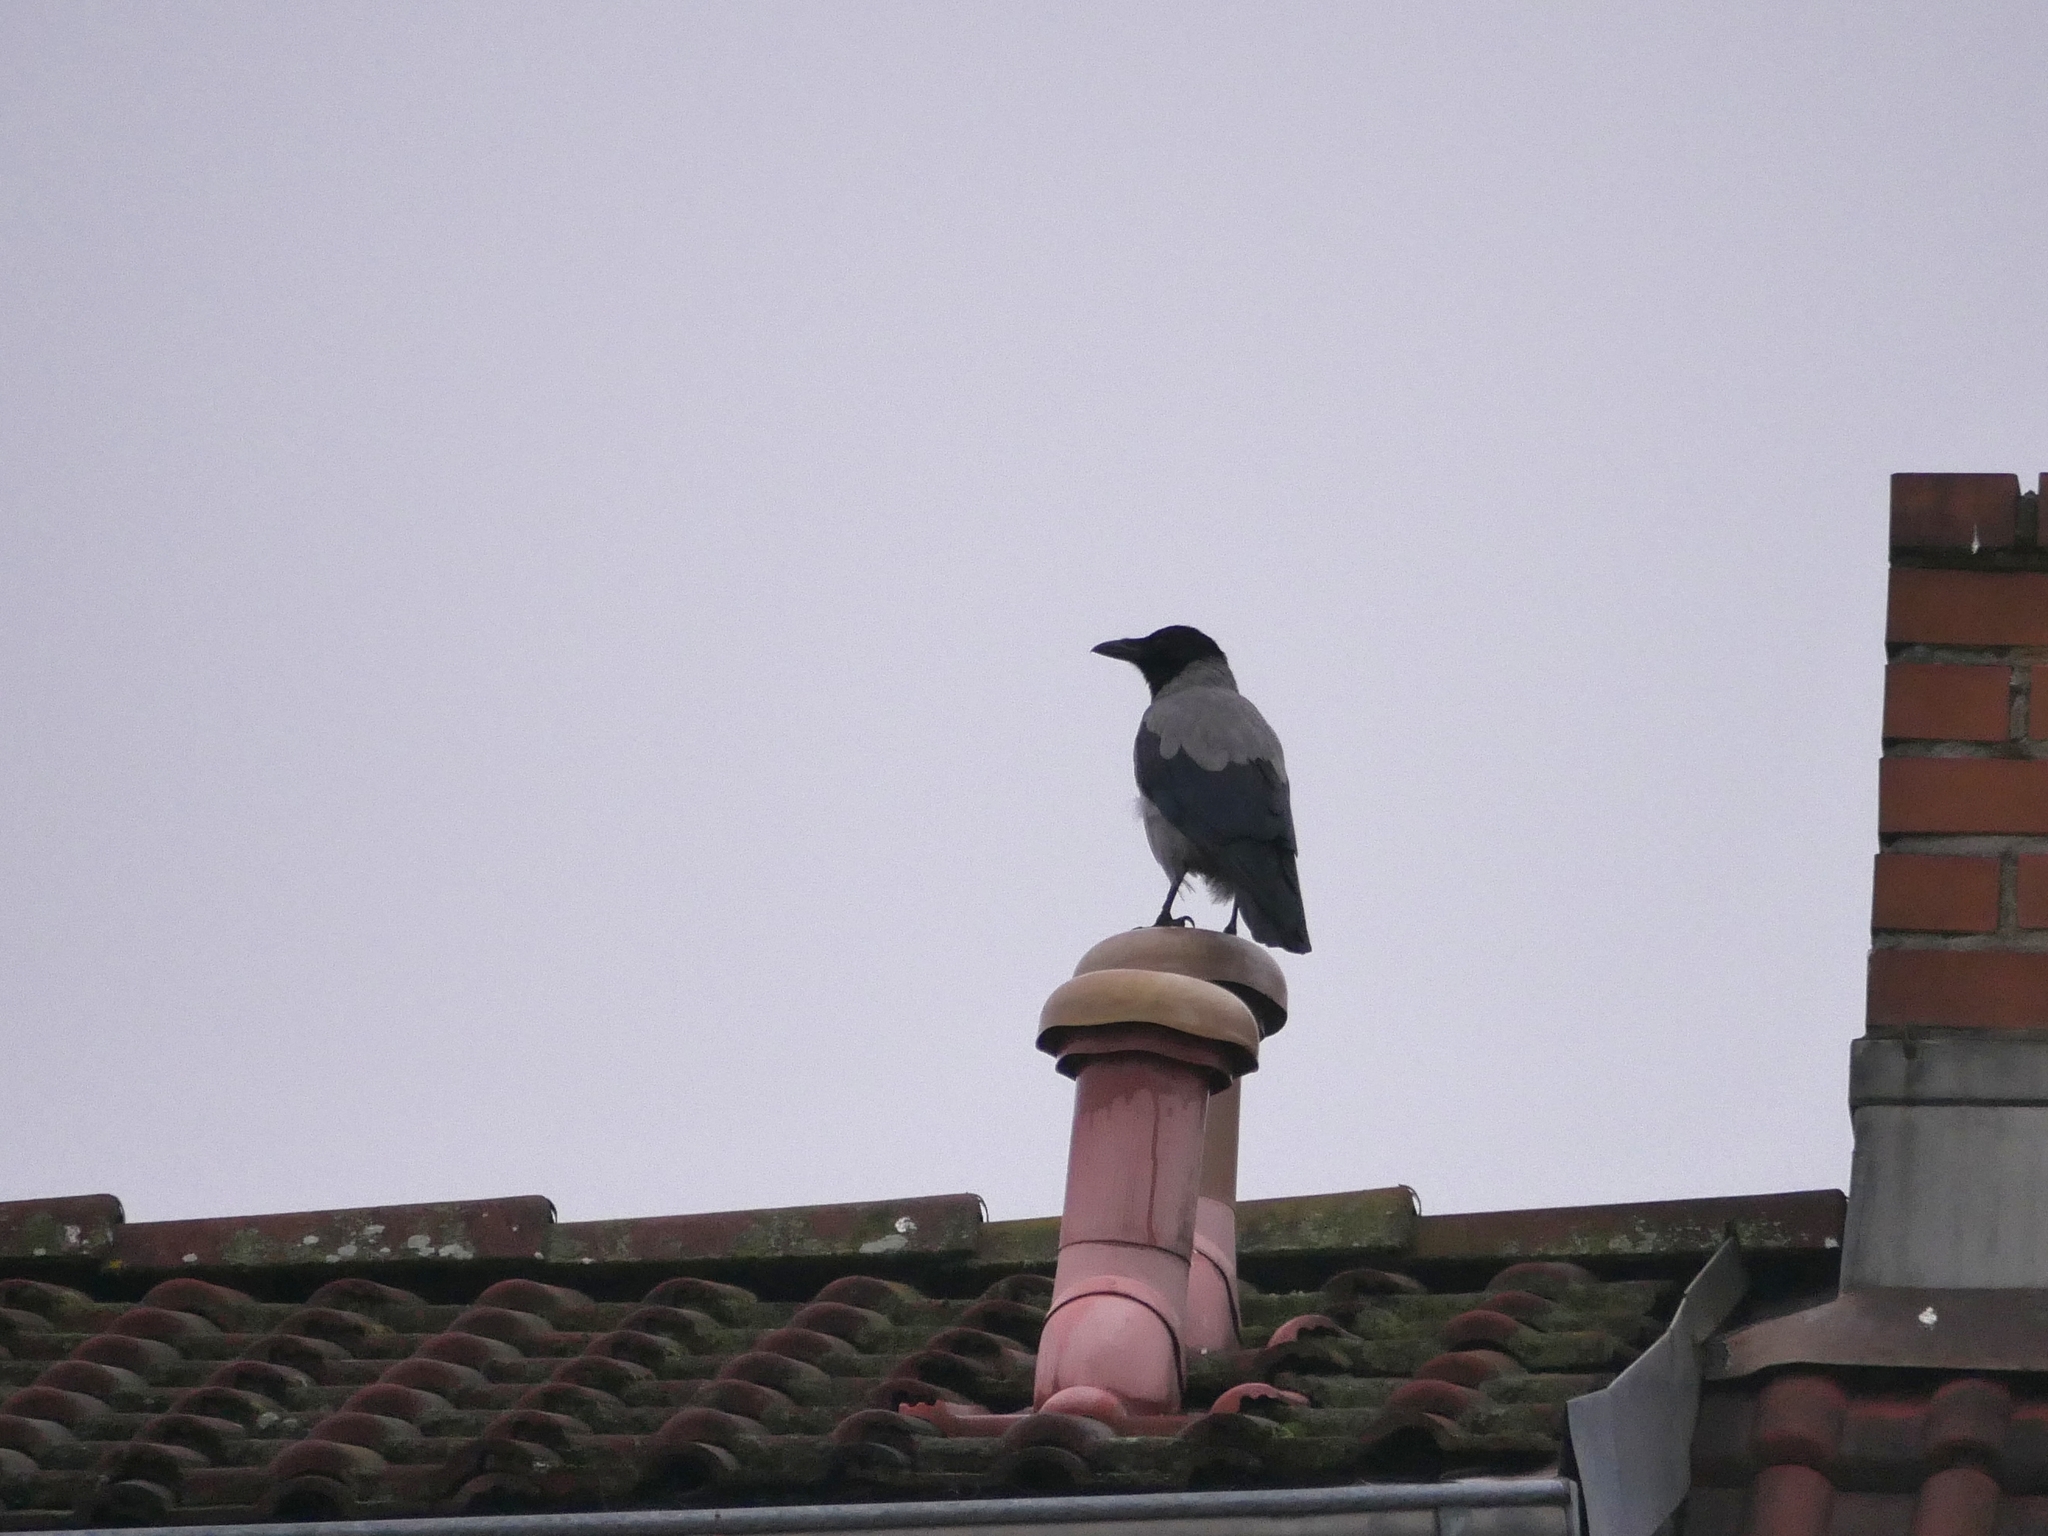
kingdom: Animalia
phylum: Chordata
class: Aves
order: Passeriformes
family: Corvidae
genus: Corvus
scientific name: Corvus cornix
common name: Hooded crow
